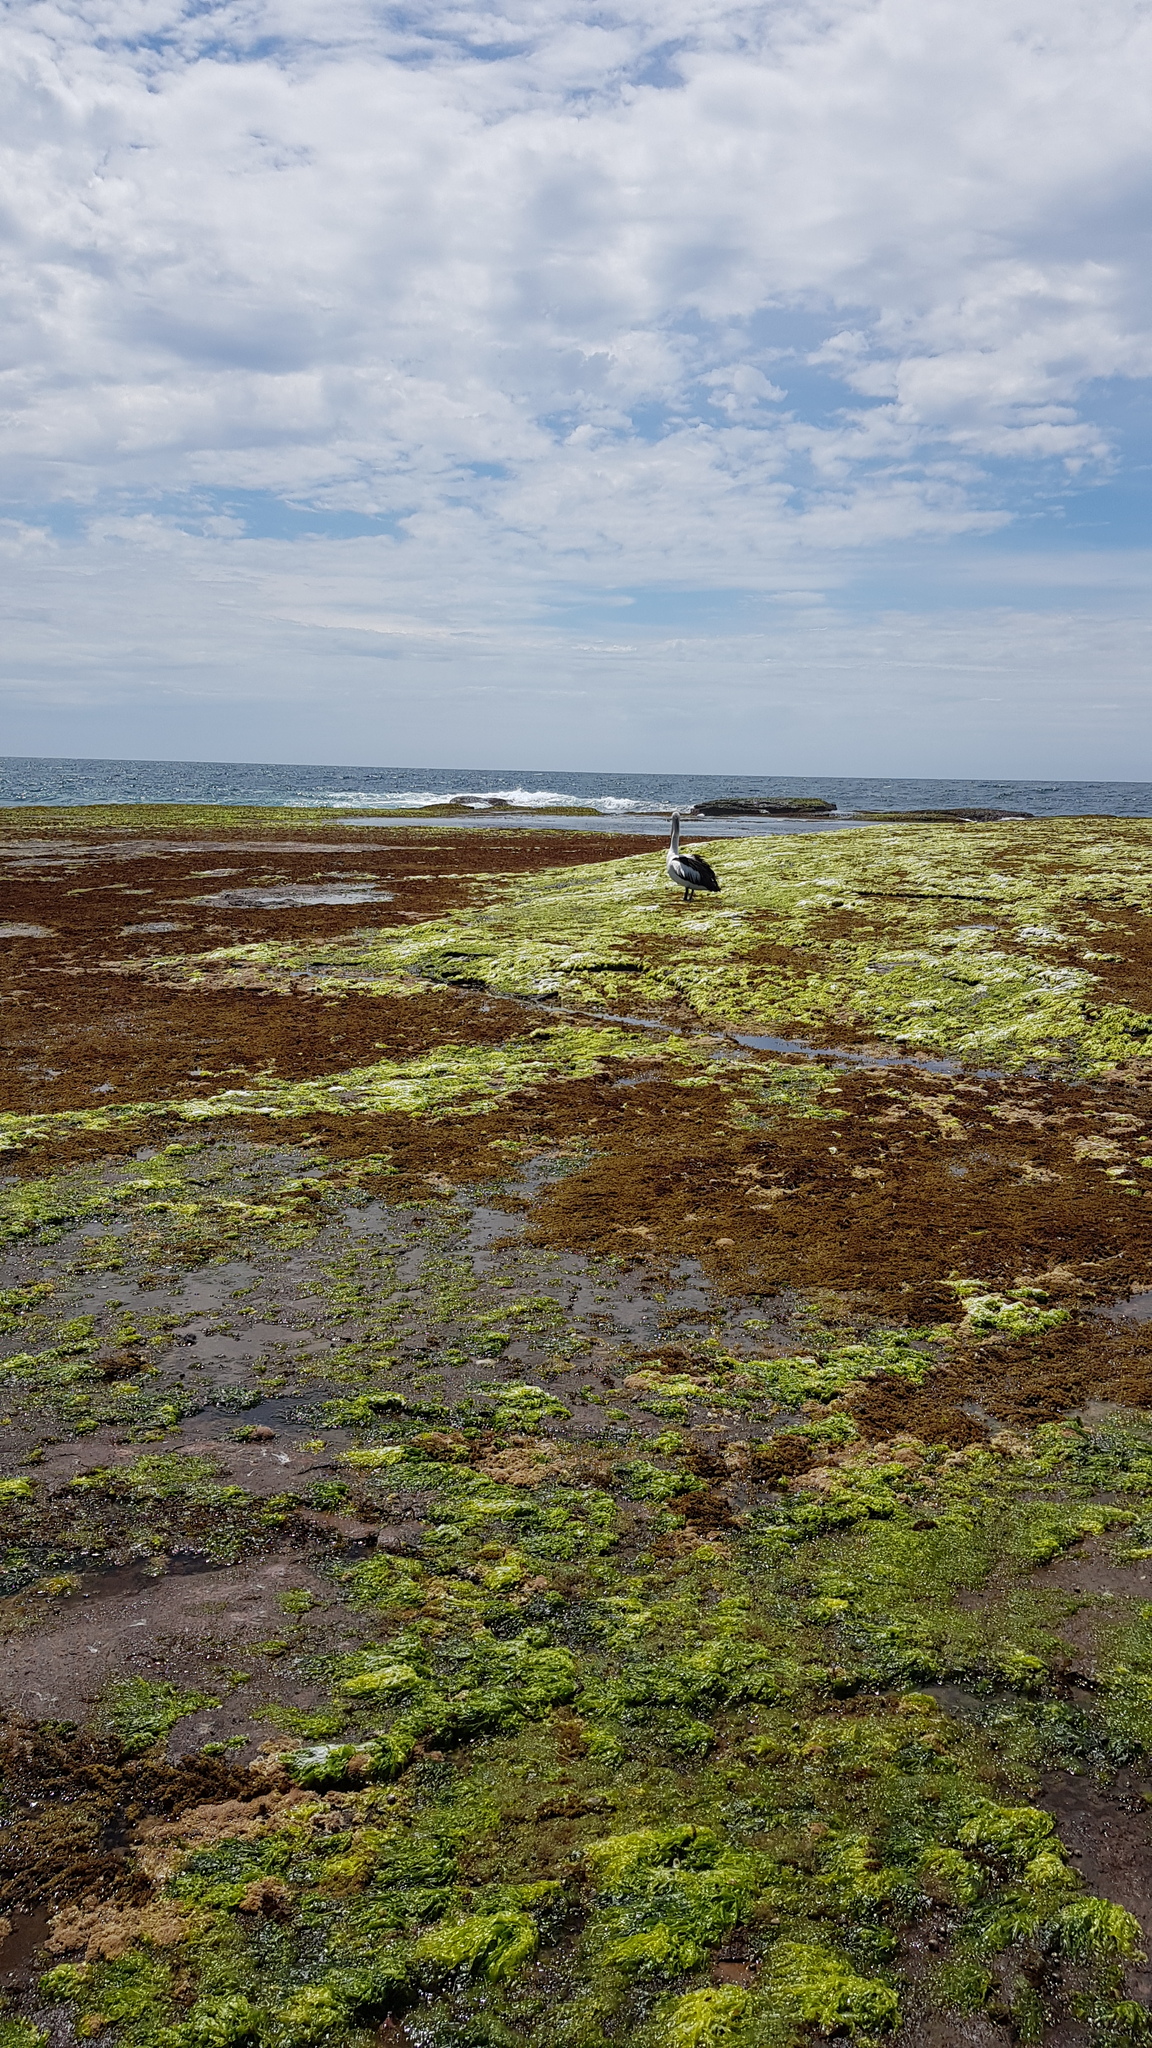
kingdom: Animalia
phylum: Chordata
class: Aves
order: Pelecaniformes
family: Pelecanidae
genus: Pelecanus
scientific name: Pelecanus conspicillatus
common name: Australian pelican
